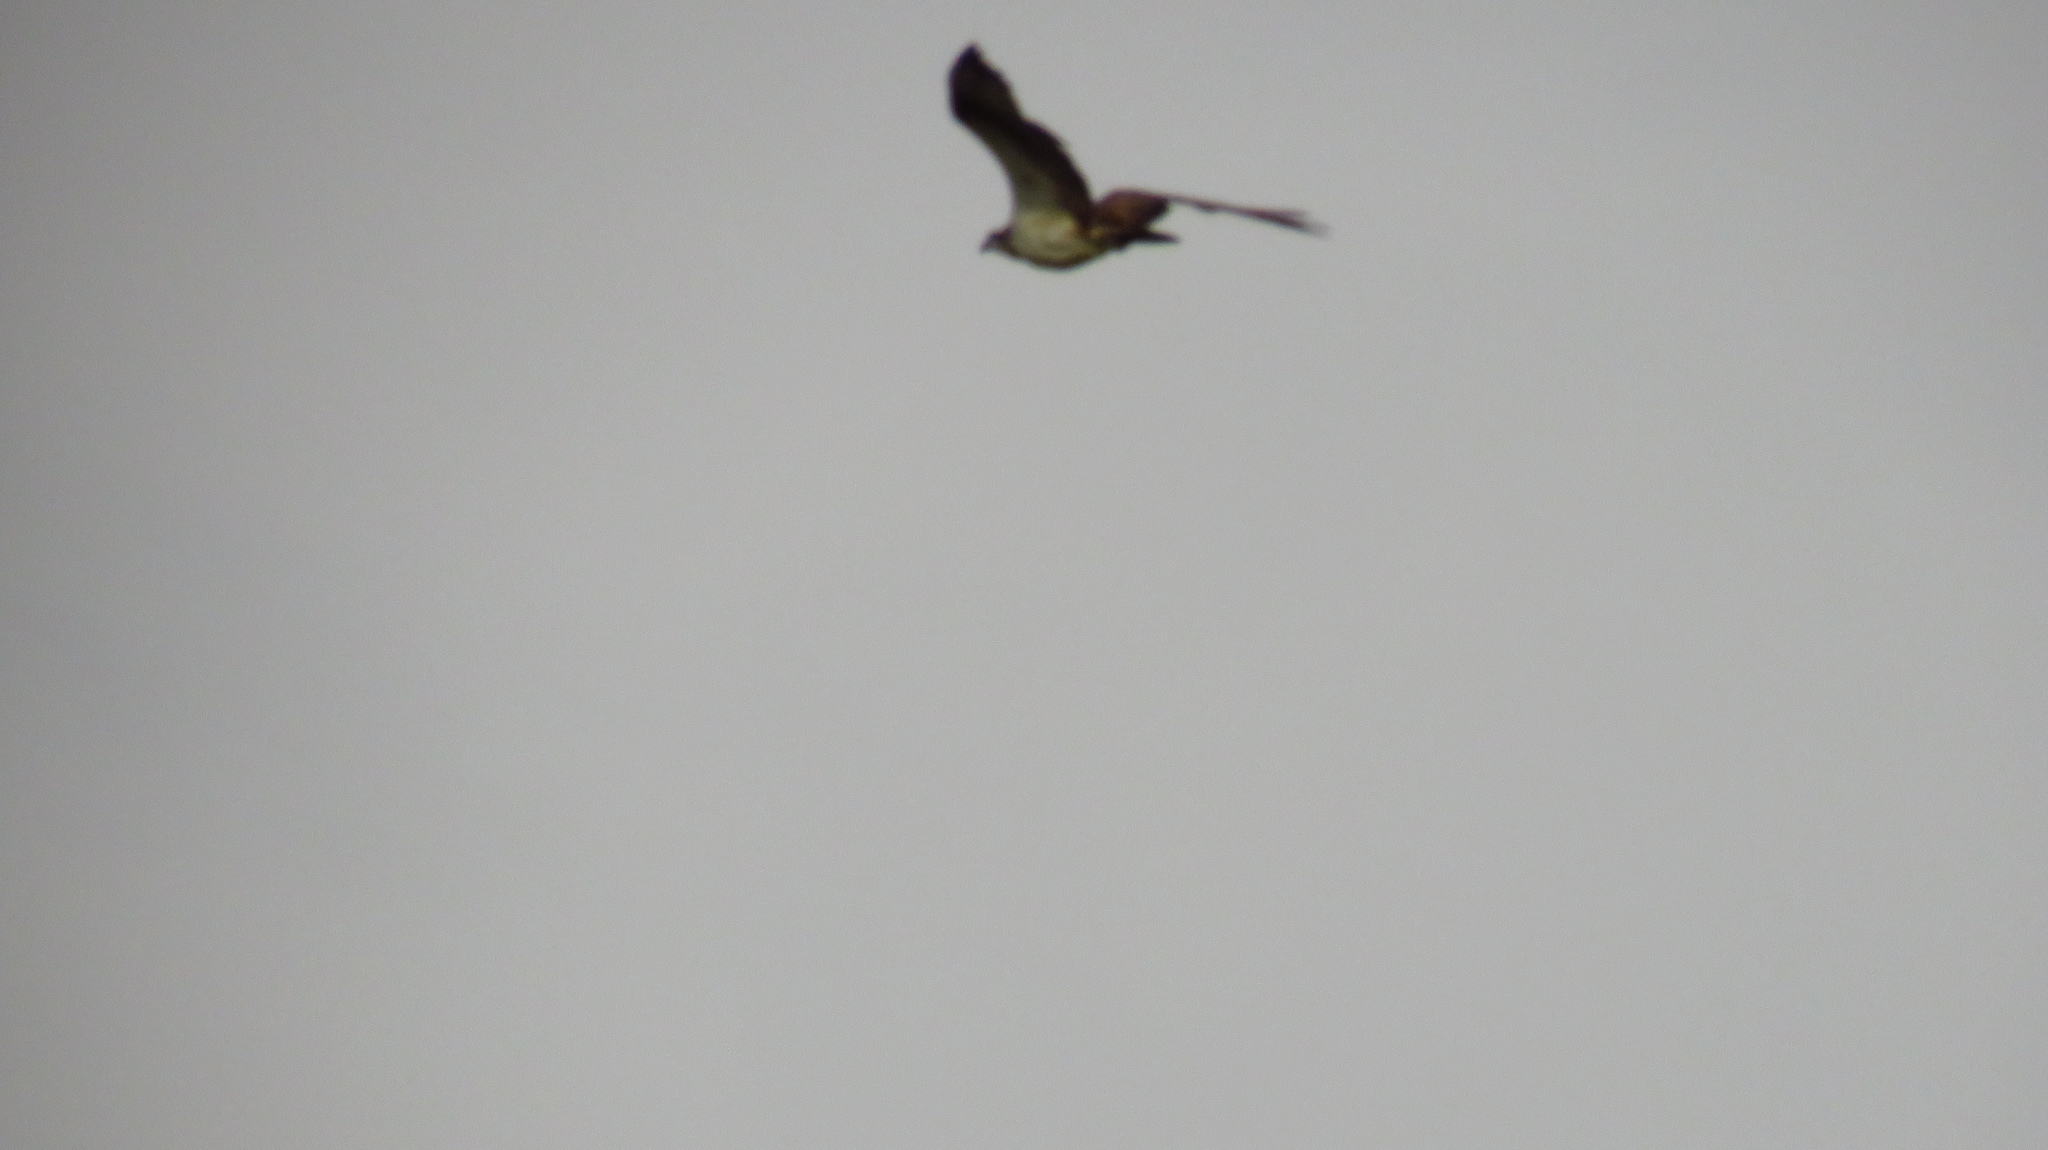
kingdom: Animalia
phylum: Chordata
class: Aves
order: Accipitriformes
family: Pandionidae
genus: Pandion
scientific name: Pandion haliaetus
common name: Osprey
